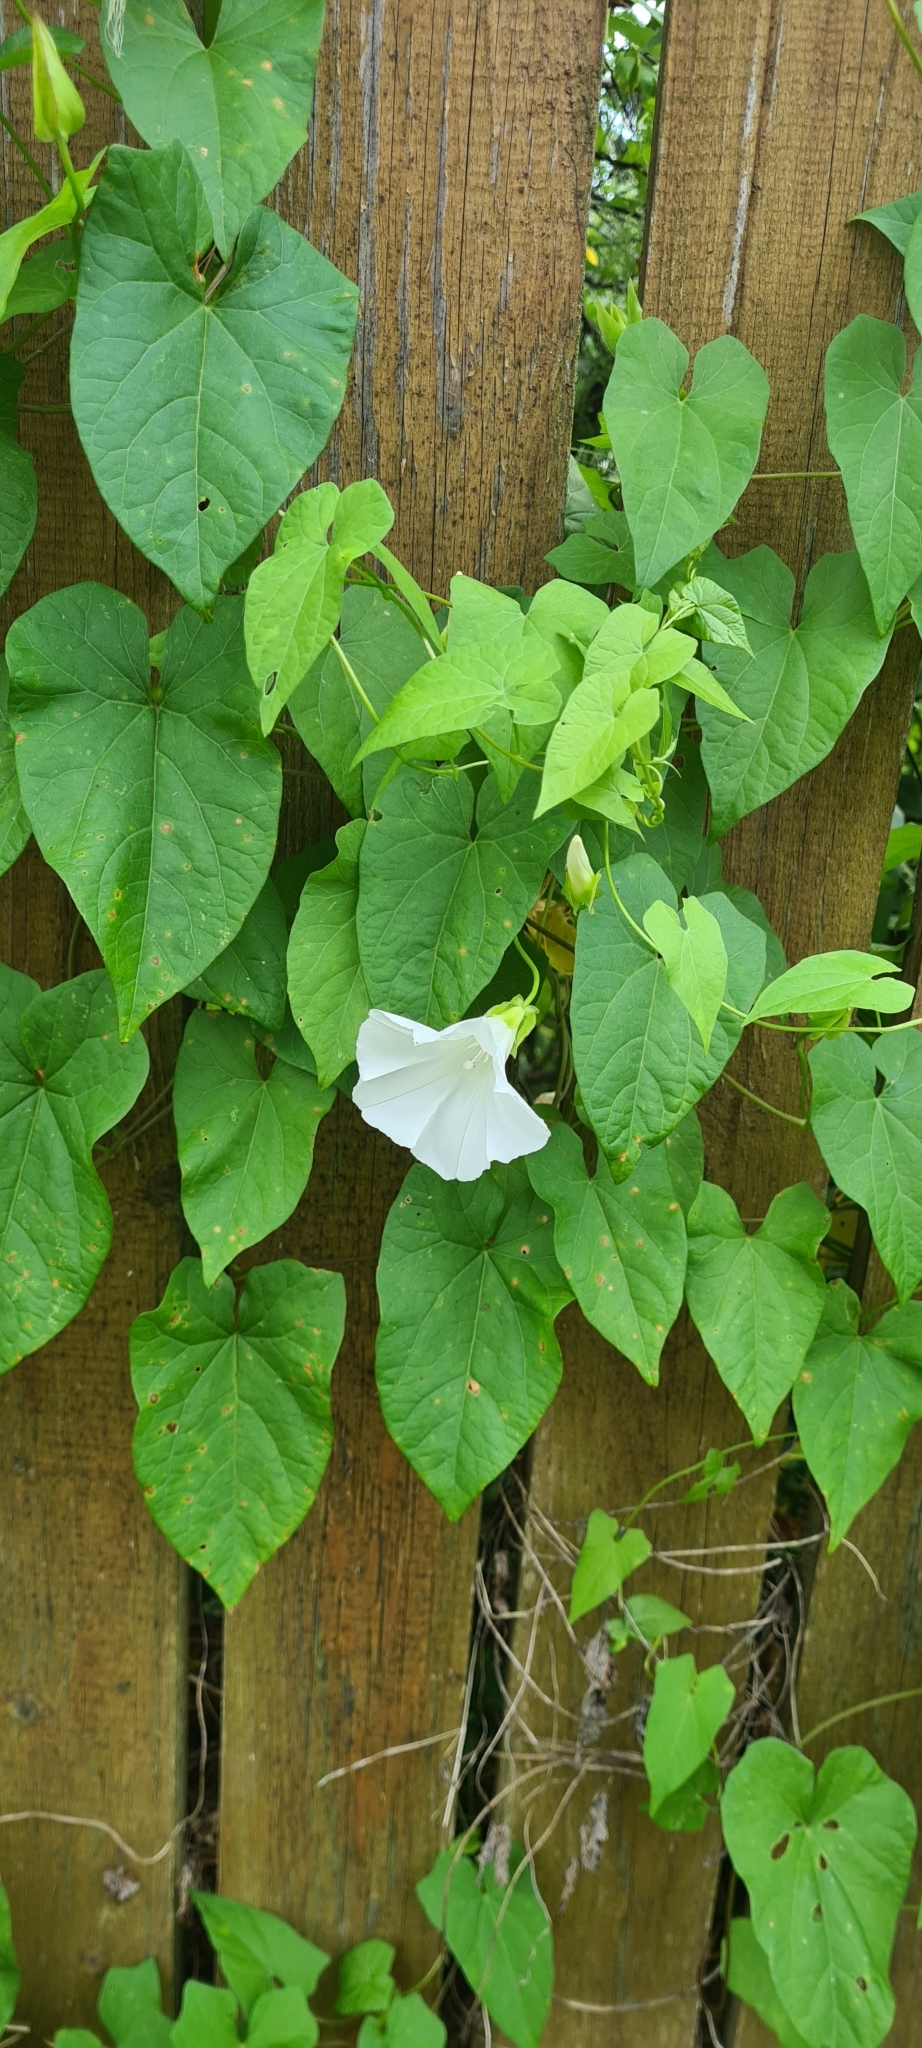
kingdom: Plantae
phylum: Tracheophyta
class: Magnoliopsida
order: Solanales
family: Convolvulaceae
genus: Calystegia
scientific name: Calystegia sepium
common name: Hedge bindweed
